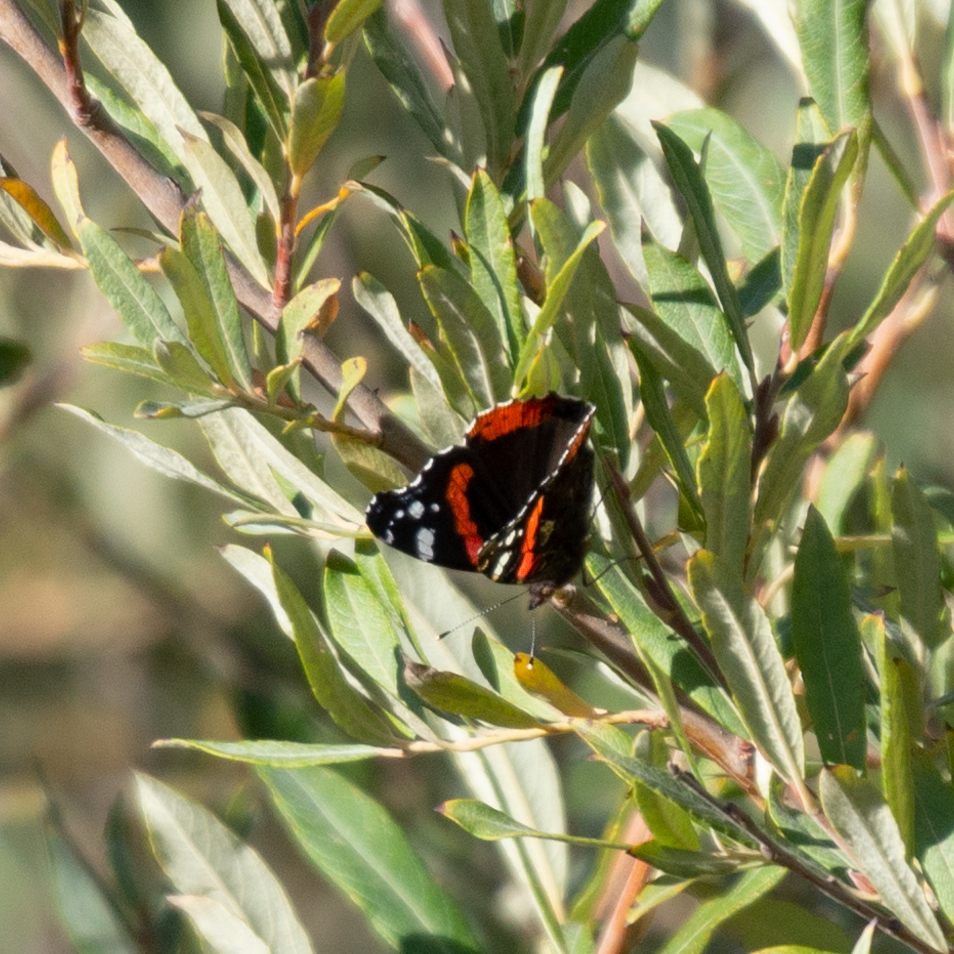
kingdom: Animalia
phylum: Arthropoda
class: Insecta
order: Lepidoptera
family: Nymphalidae
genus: Vanessa
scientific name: Vanessa atalanta
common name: Red admiral
